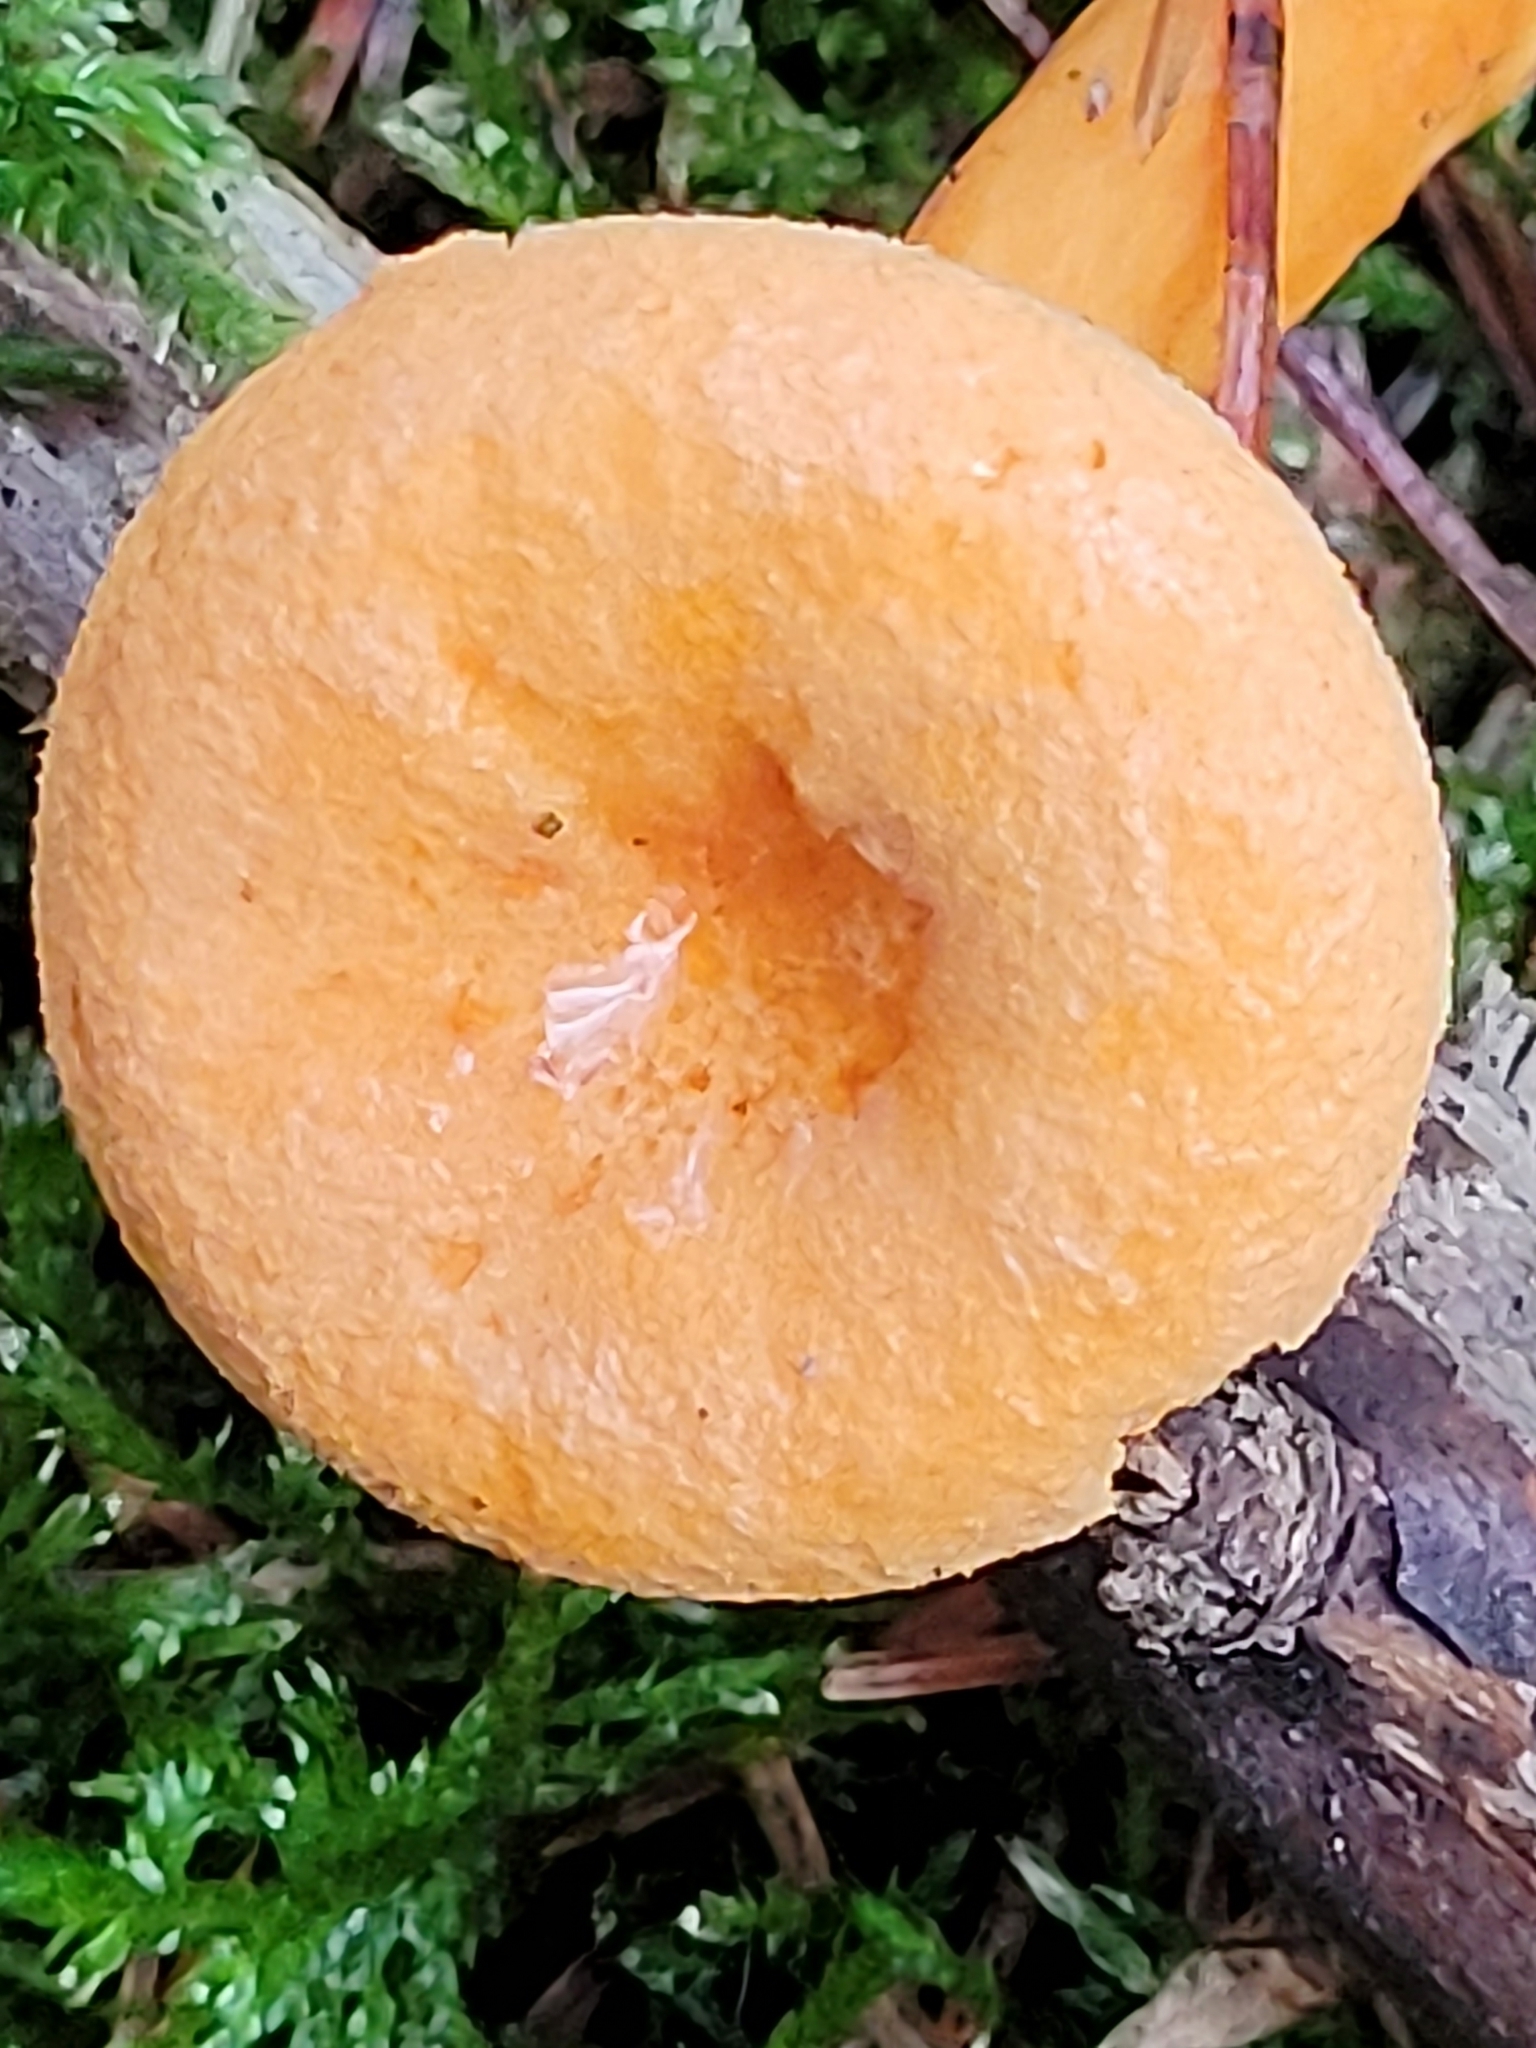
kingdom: Fungi
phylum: Basidiomycota
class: Agaricomycetes
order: Boletales
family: Hygrophoropsidaceae
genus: Hygrophoropsis
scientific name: Hygrophoropsis aurantiaca
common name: False chanterelle
